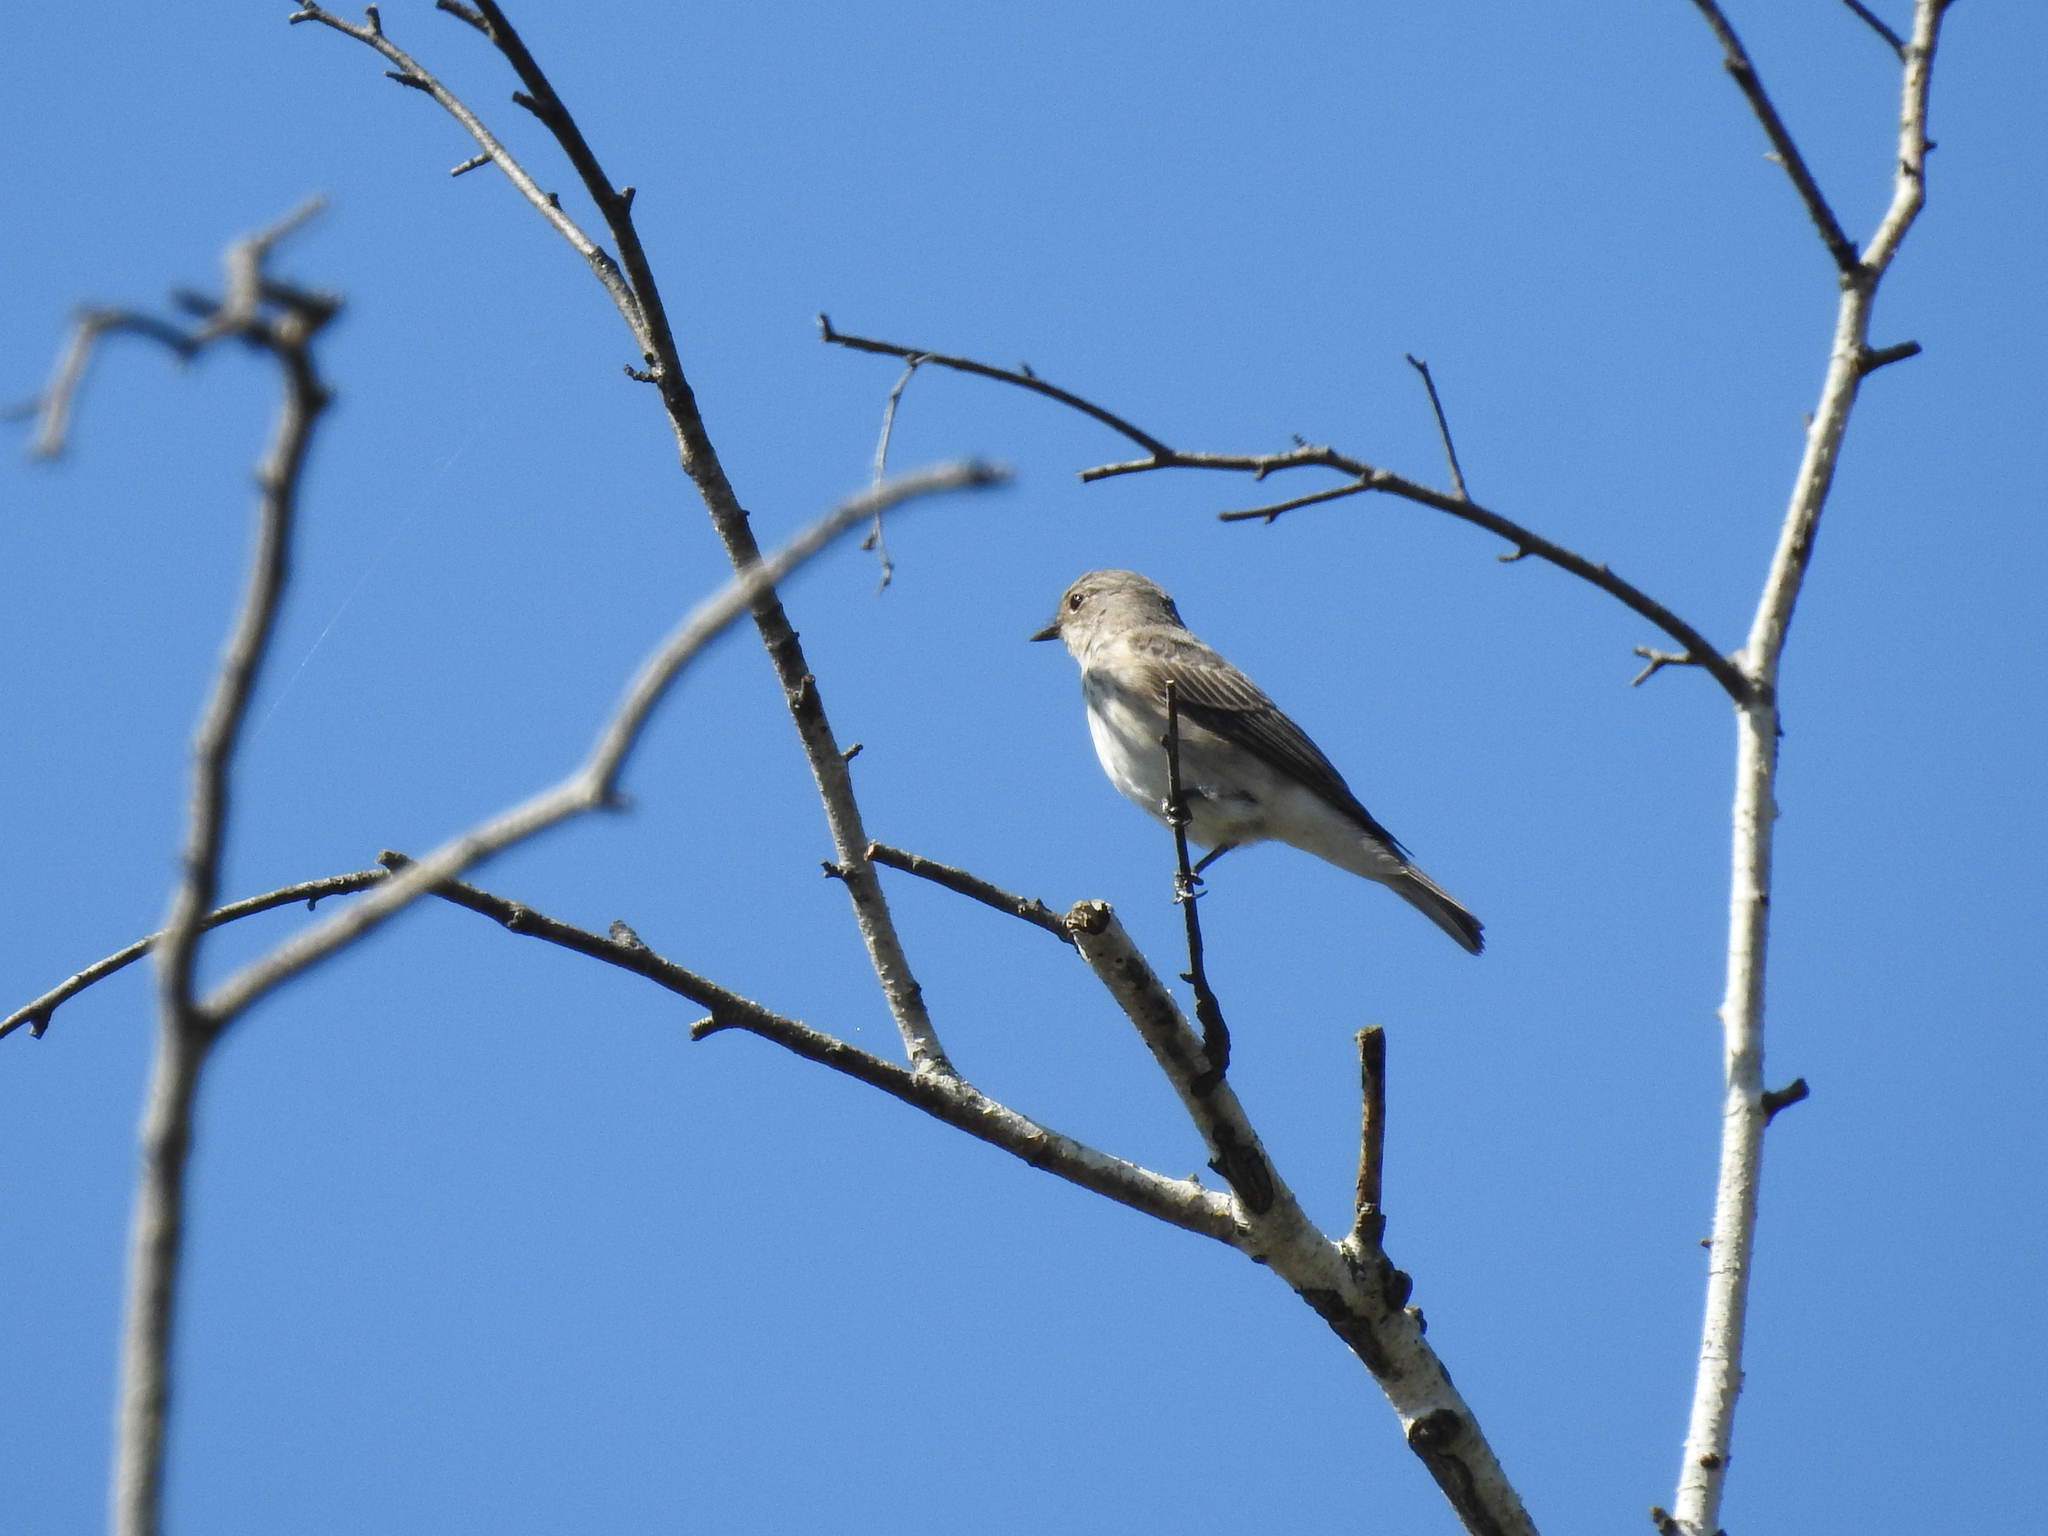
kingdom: Animalia
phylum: Chordata
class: Aves
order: Passeriformes
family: Muscicapidae
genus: Muscicapa
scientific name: Muscicapa striata
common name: Spotted flycatcher
